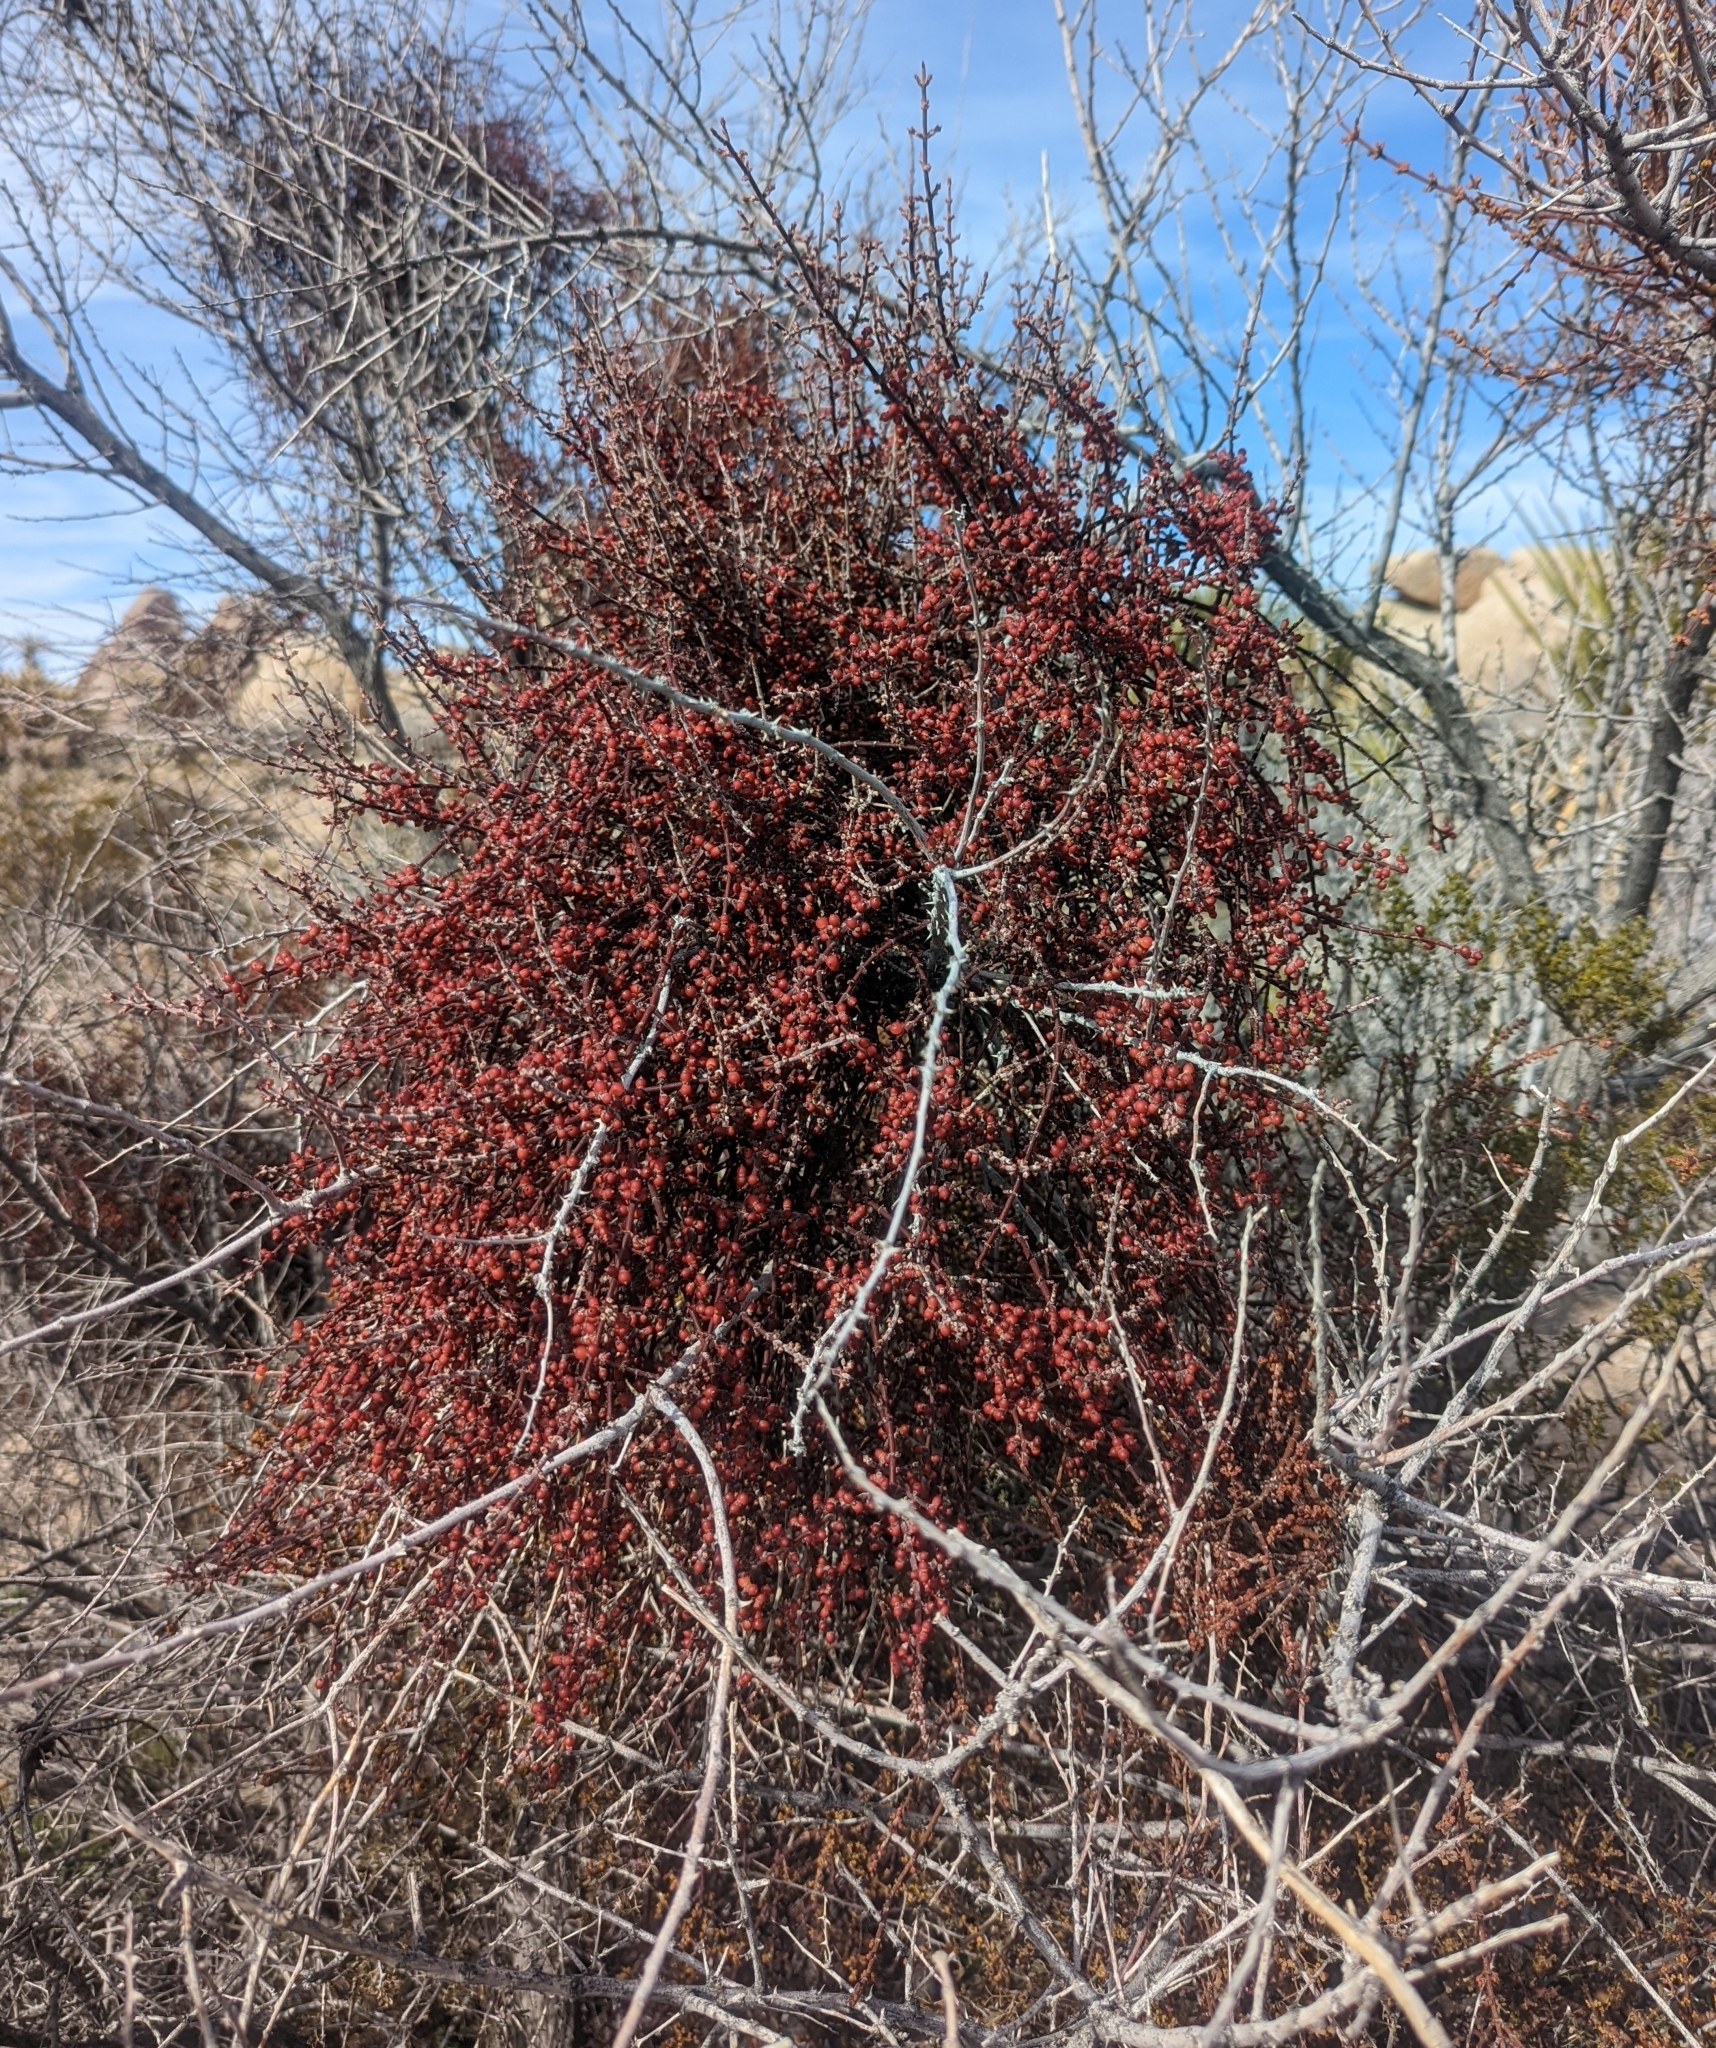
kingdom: Plantae
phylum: Tracheophyta
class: Magnoliopsida
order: Santalales
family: Viscaceae
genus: Phoradendron
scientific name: Phoradendron californicum
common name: Acacia mistletoe
